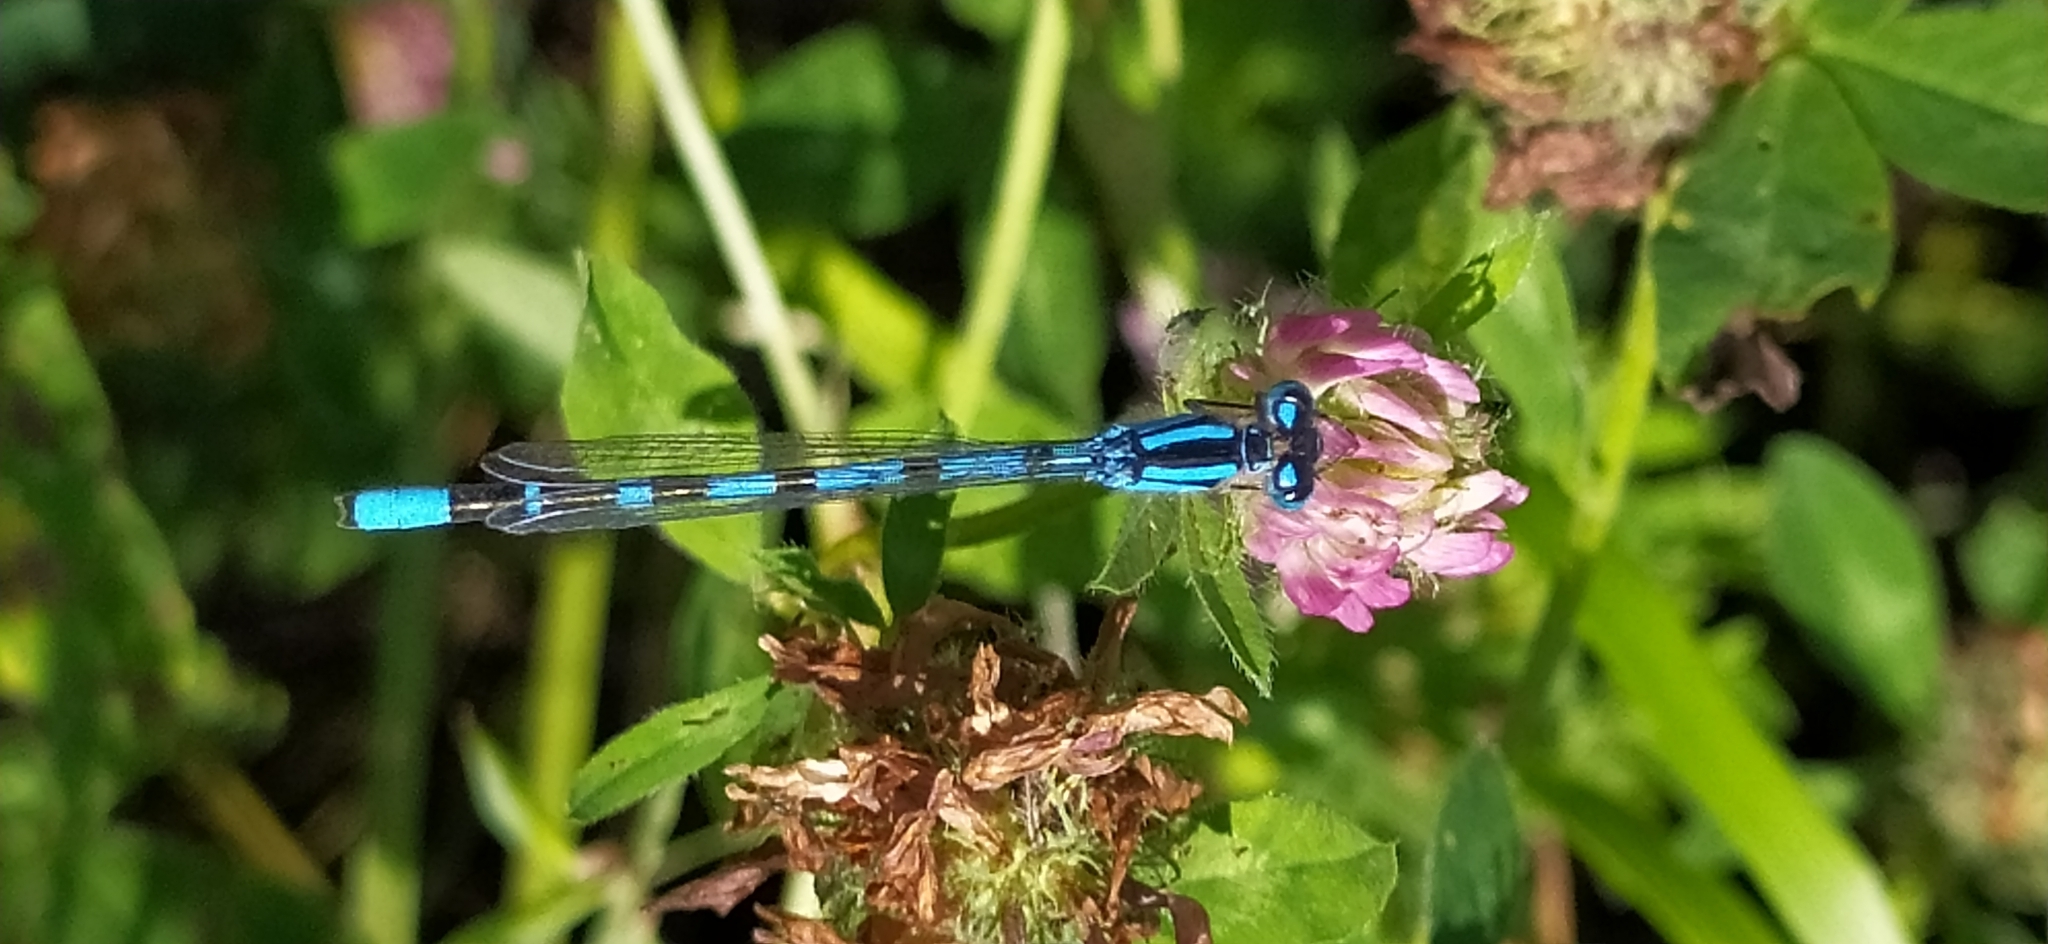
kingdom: Animalia
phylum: Arthropoda
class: Insecta
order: Odonata
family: Coenagrionidae
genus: Enallagma
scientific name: Enallagma cyathigerum
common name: Common blue damselfly
